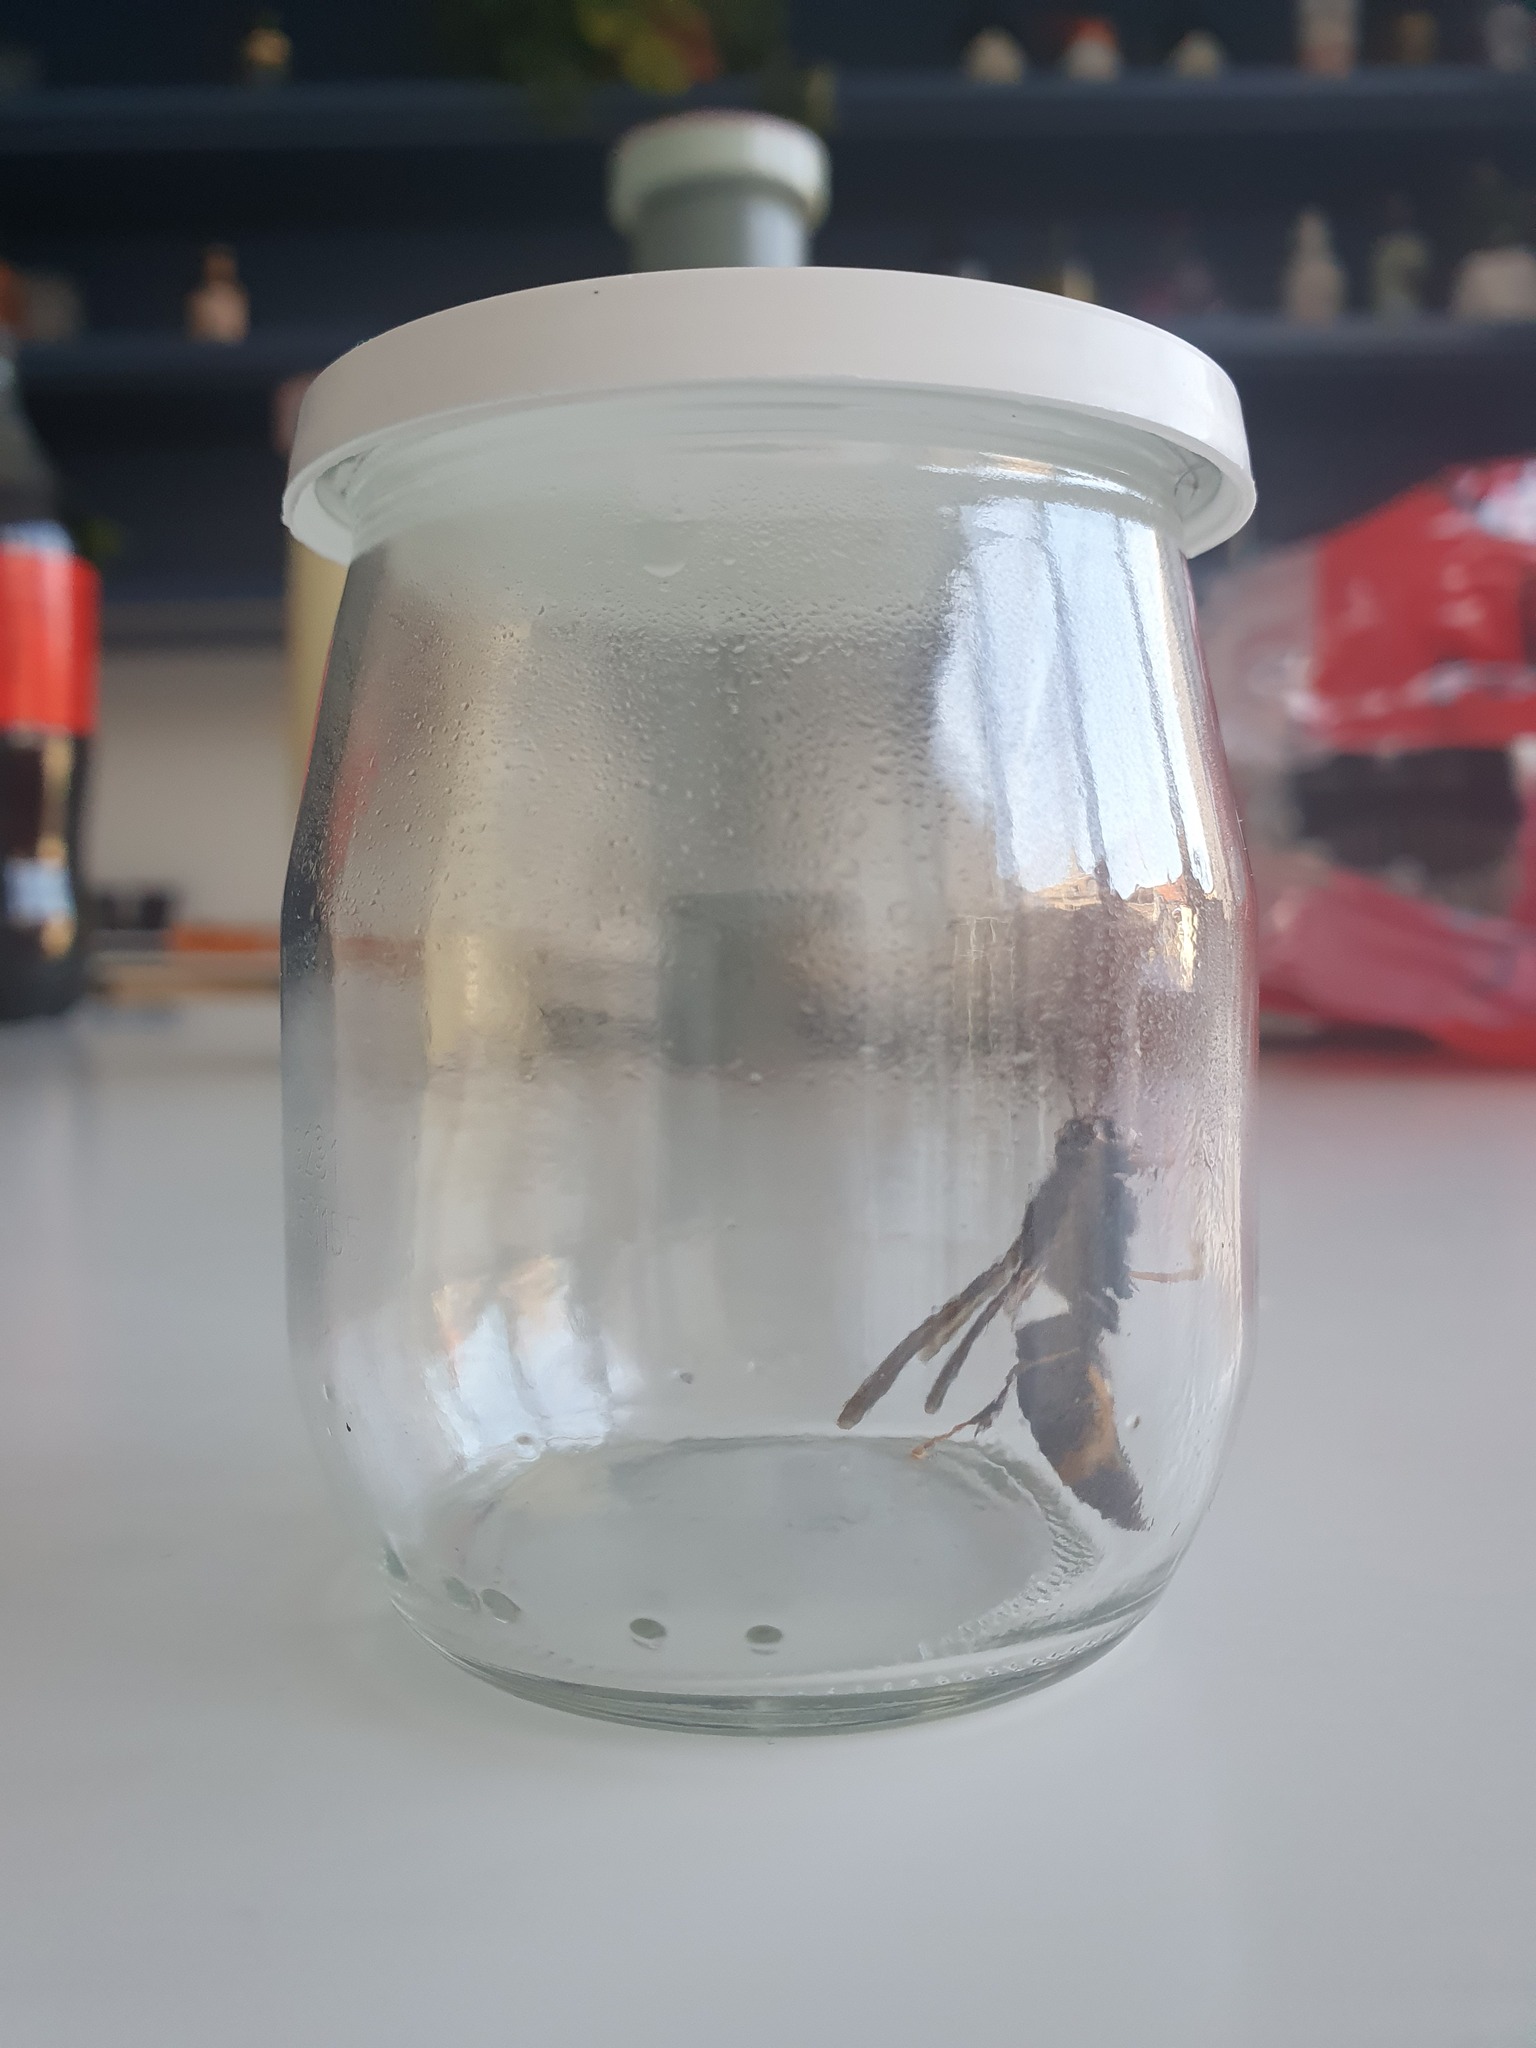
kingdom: Animalia
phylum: Arthropoda
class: Insecta
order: Hymenoptera
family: Vespidae
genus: Vespa
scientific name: Vespa velutina
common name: Asian hornet
